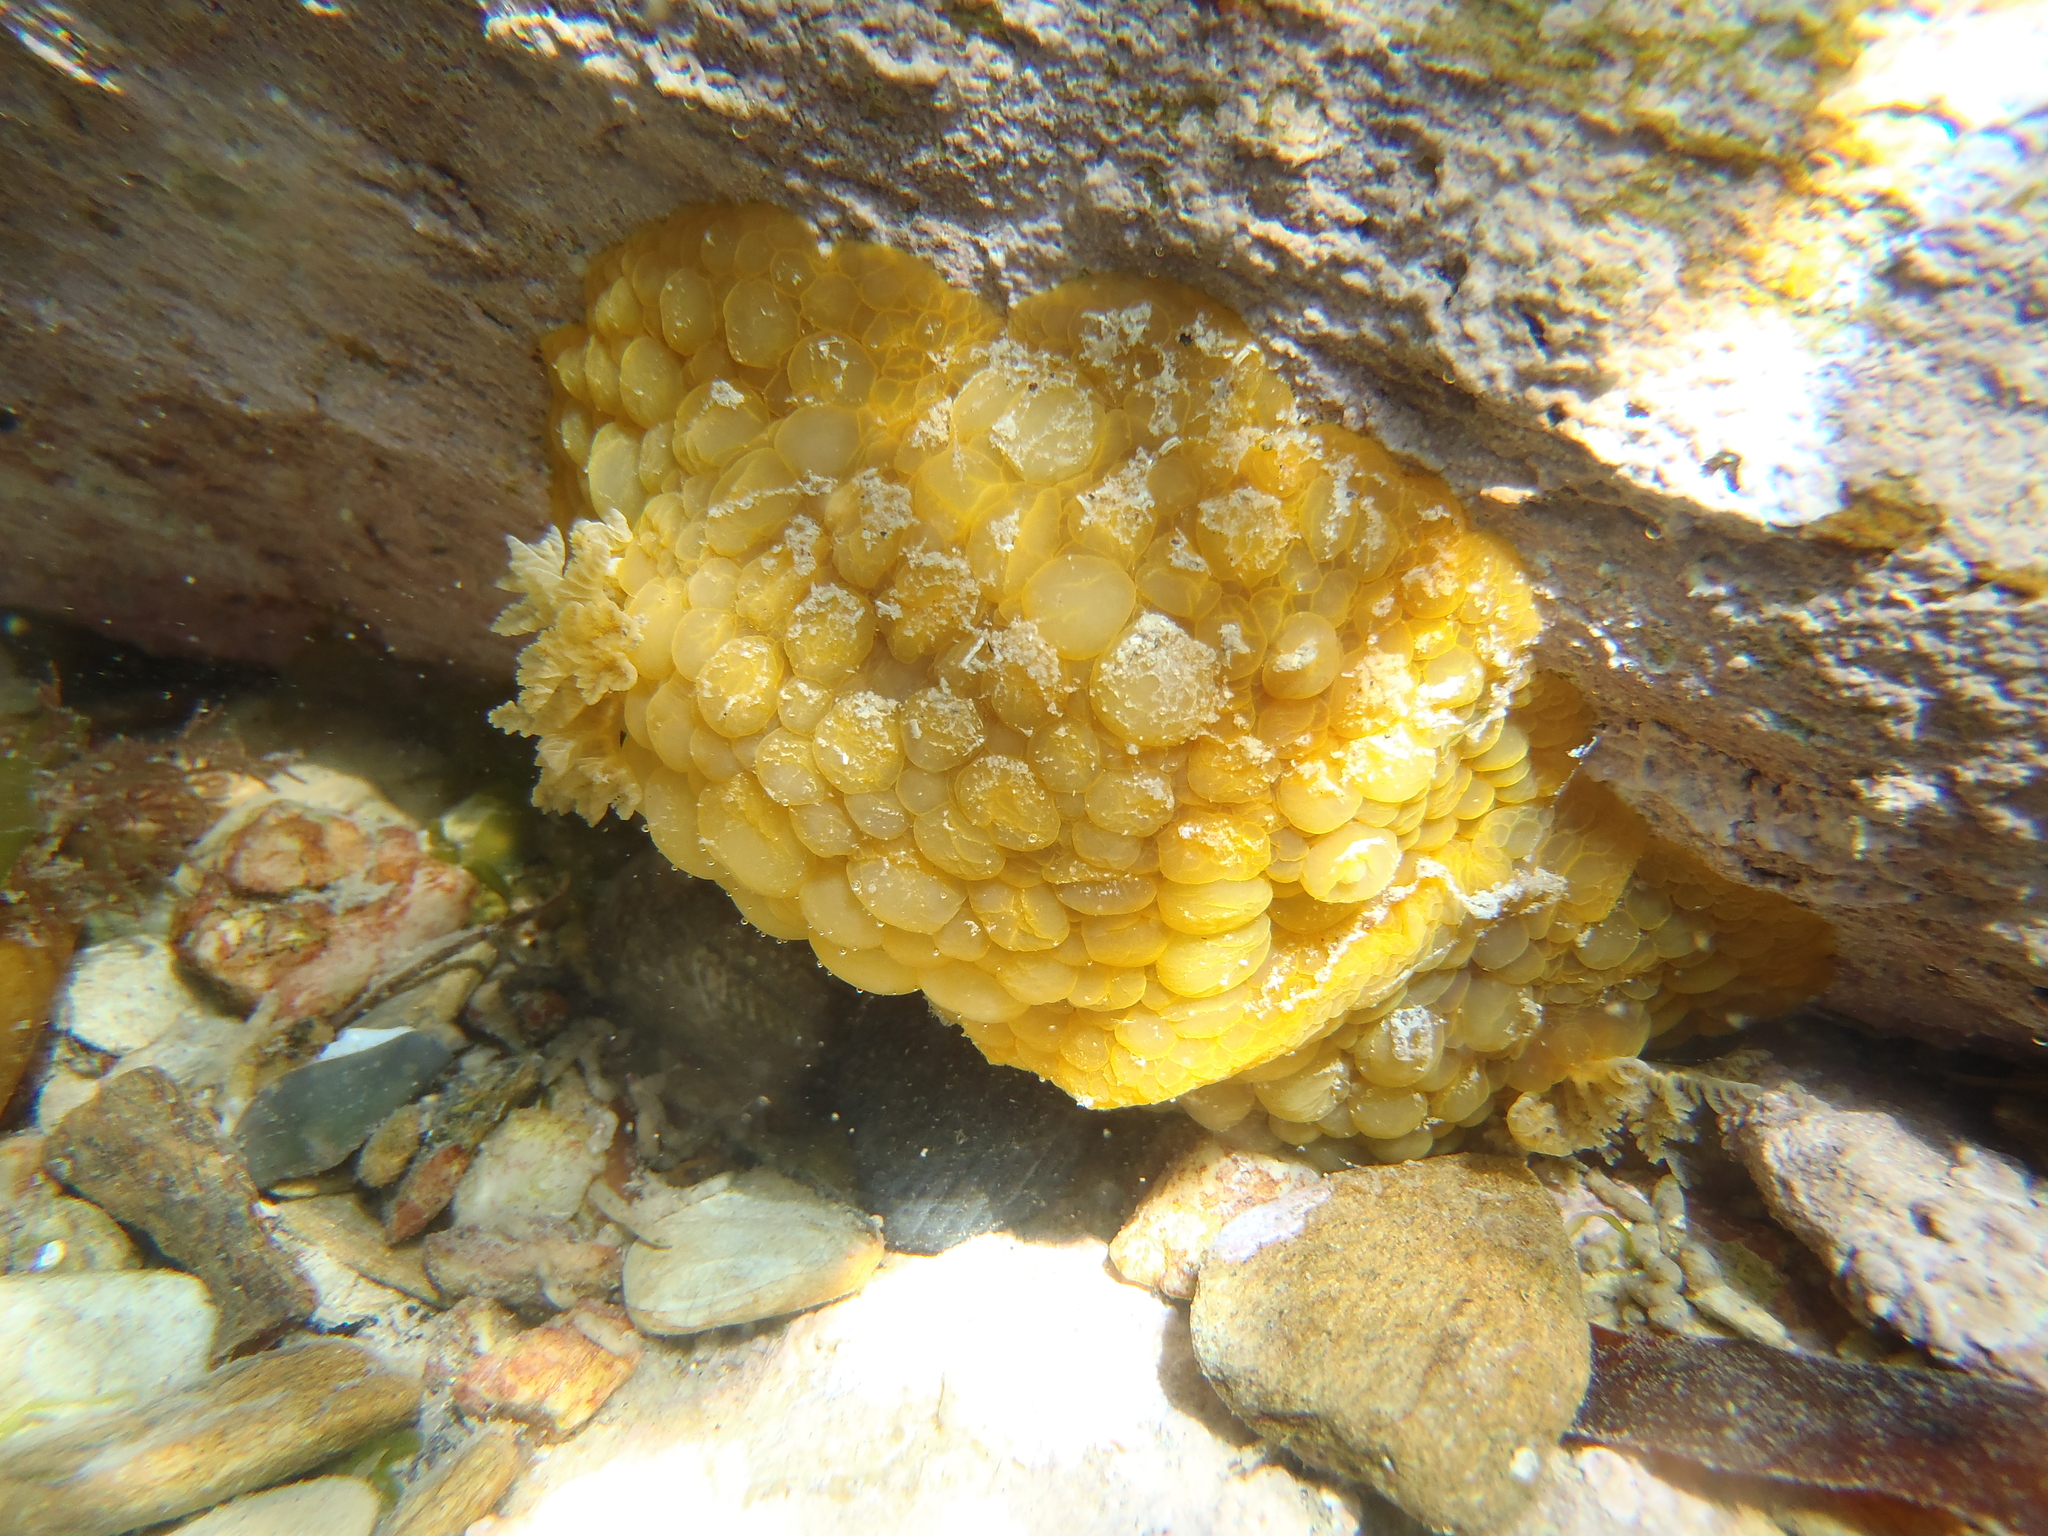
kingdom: Animalia
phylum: Mollusca
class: Gastropoda
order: Nudibranchia
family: Dorididae
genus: Doris
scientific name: Doris wellingtonensis
